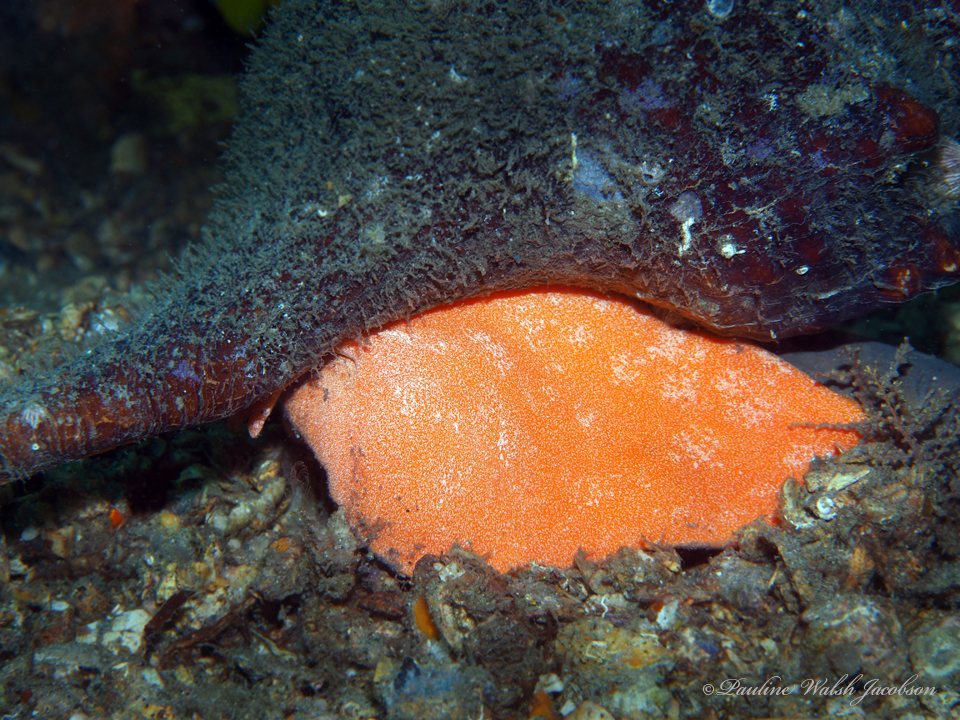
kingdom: Animalia
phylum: Mollusca
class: Gastropoda
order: Neogastropoda
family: Fasciolariidae
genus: Triplofusus
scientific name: Triplofusus giganteus
